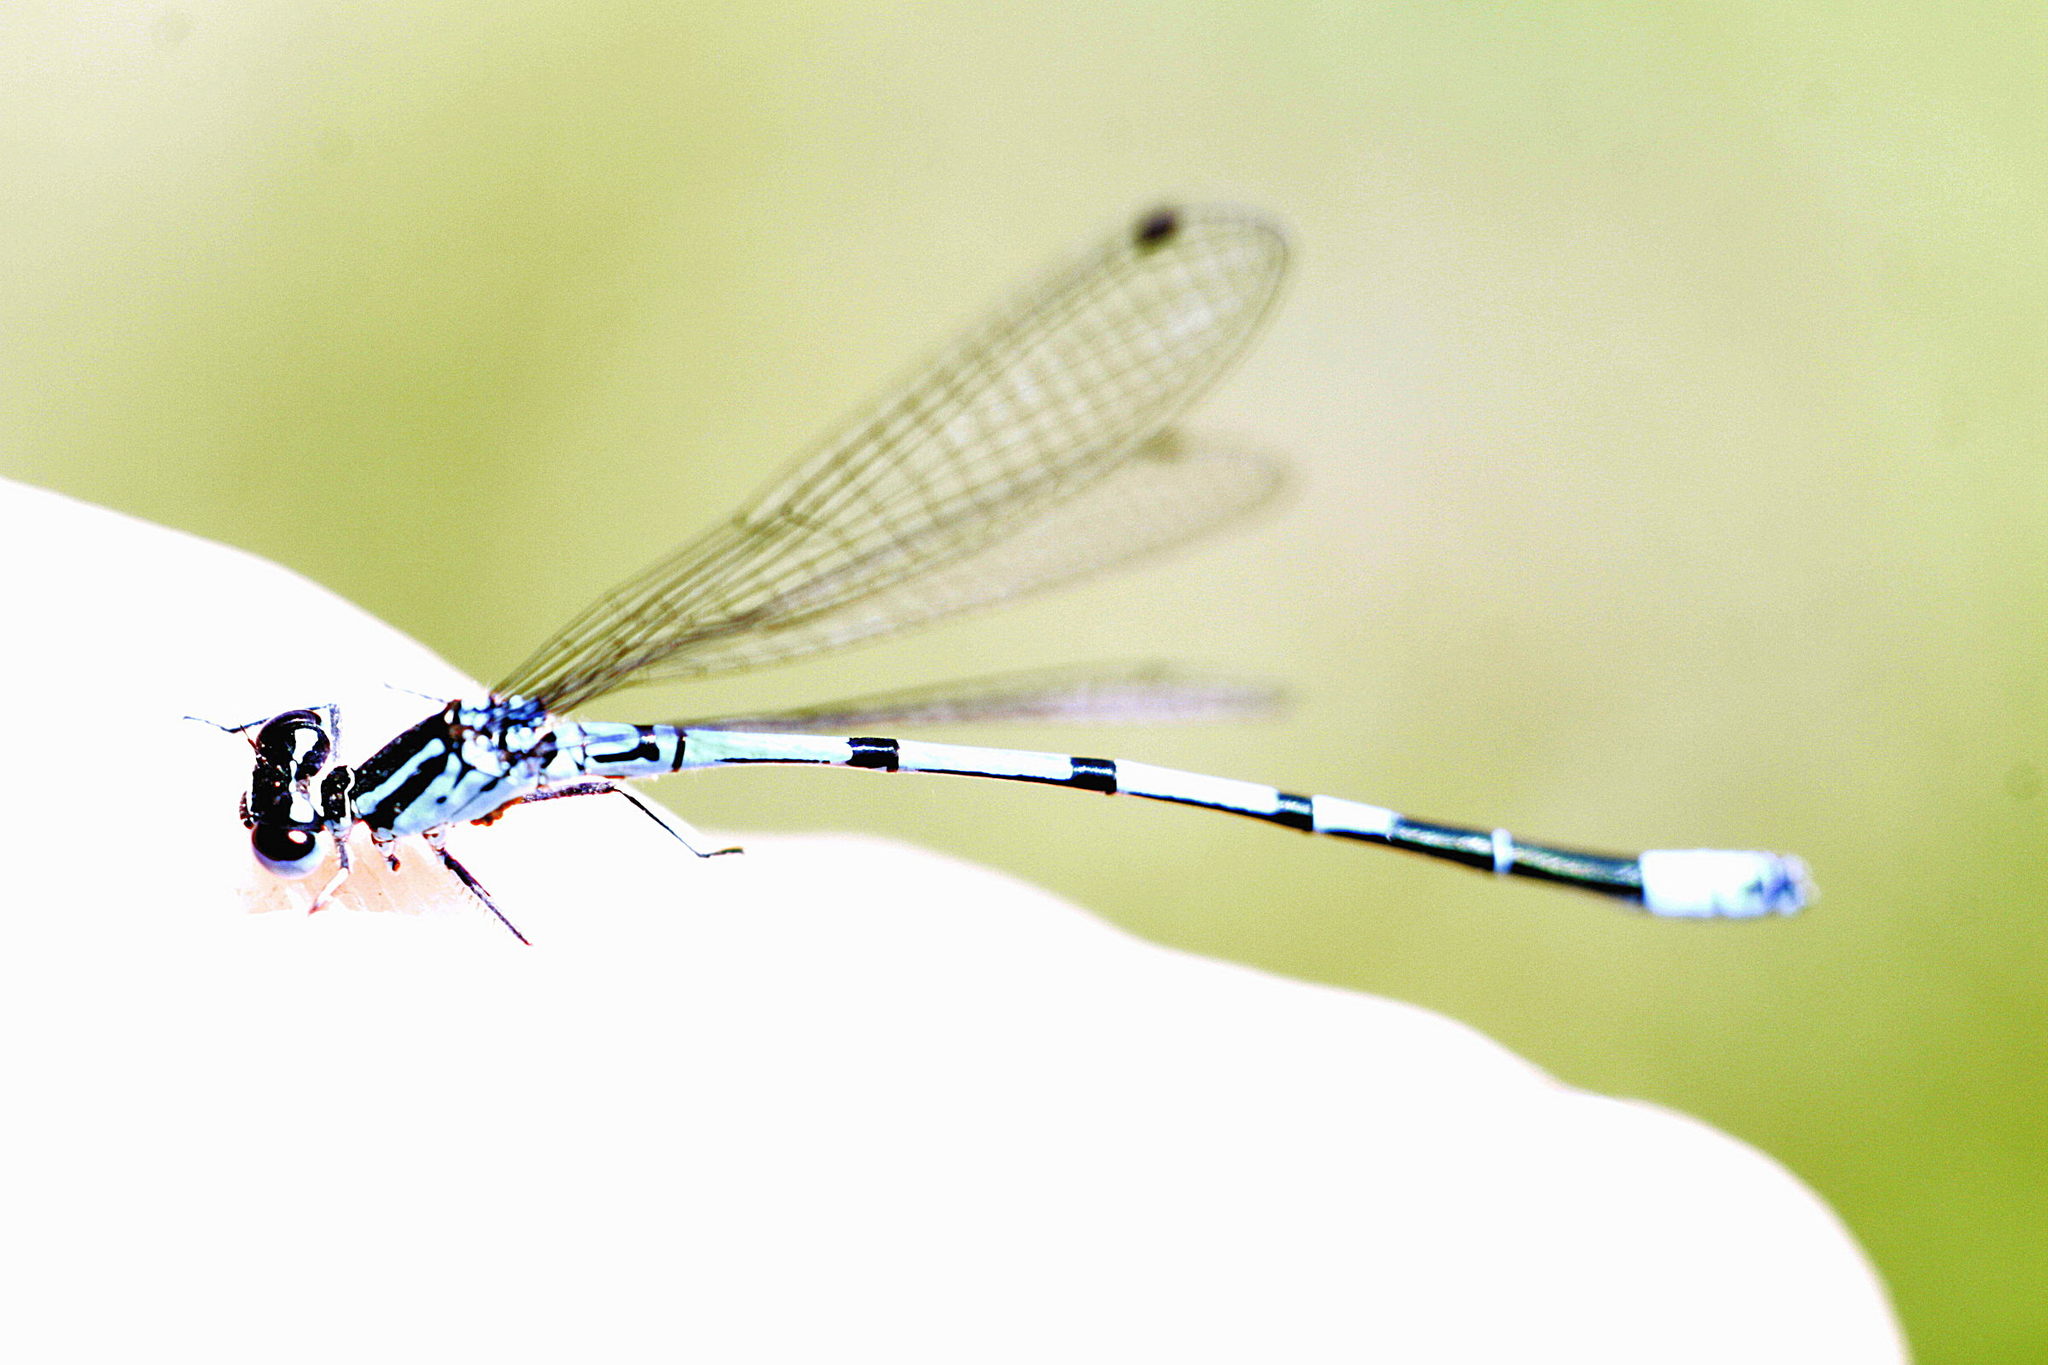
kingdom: Animalia
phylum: Arthropoda
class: Insecta
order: Odonata
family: Coenagrionidae
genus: Coenagrion
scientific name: Coenagrion puella
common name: Azure damselfly
